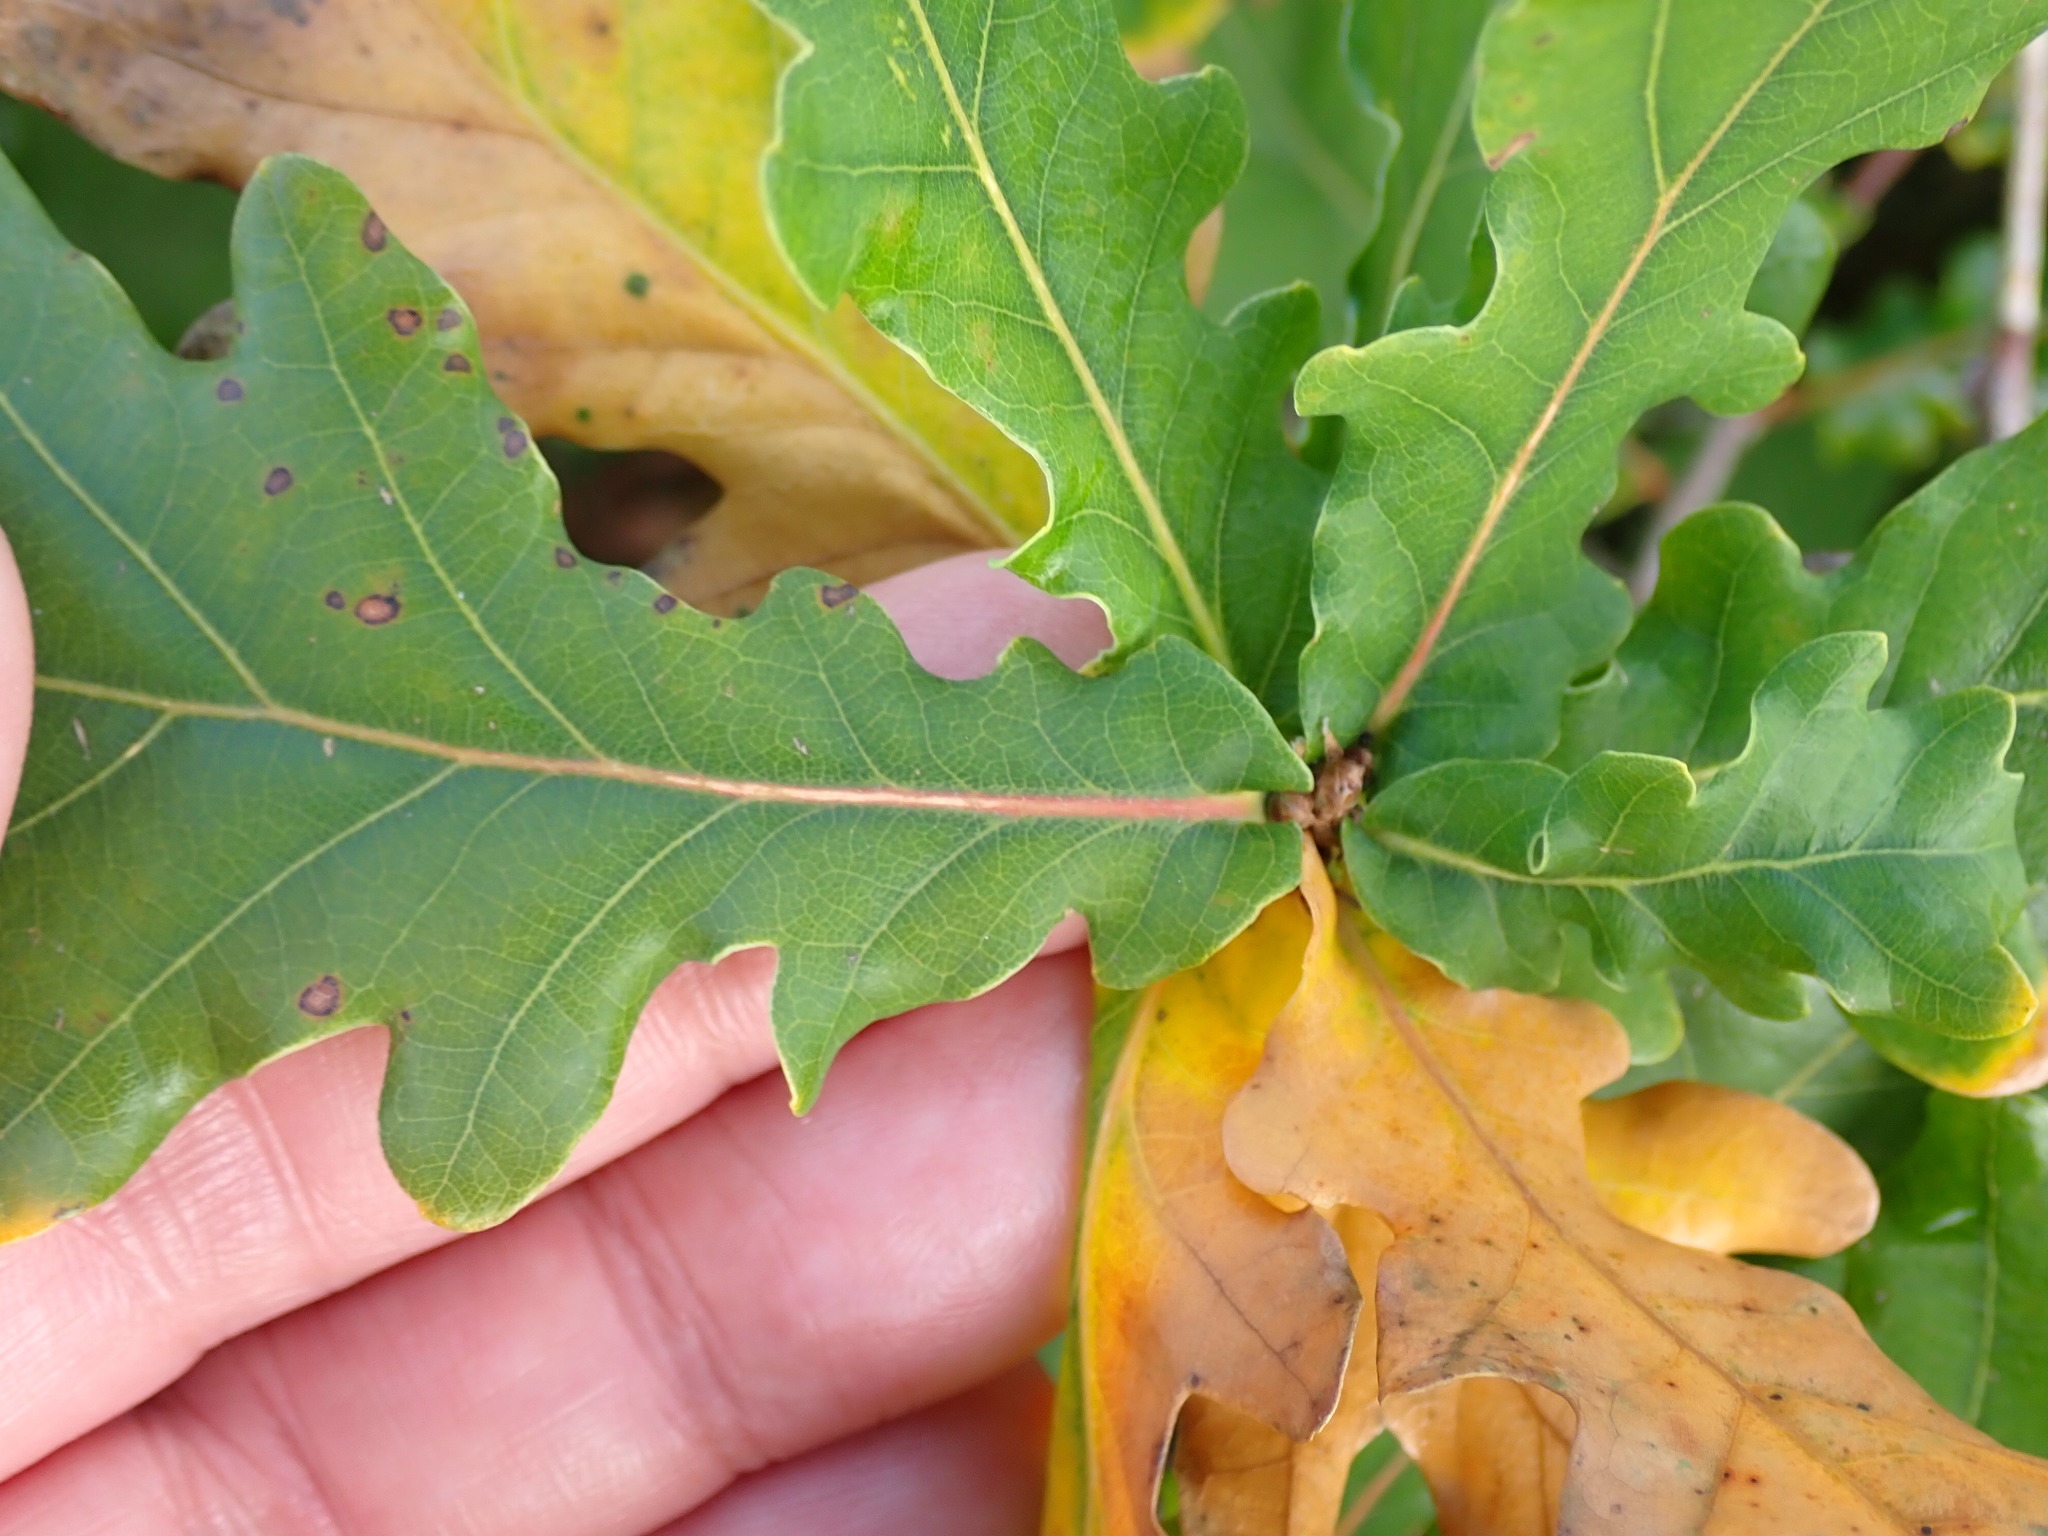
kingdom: Plantae
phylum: Tracheophyta
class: Magnoliopsida
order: Fagales
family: Fagaceae
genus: Quercus
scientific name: Quercus robur
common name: Pedunculate oak
